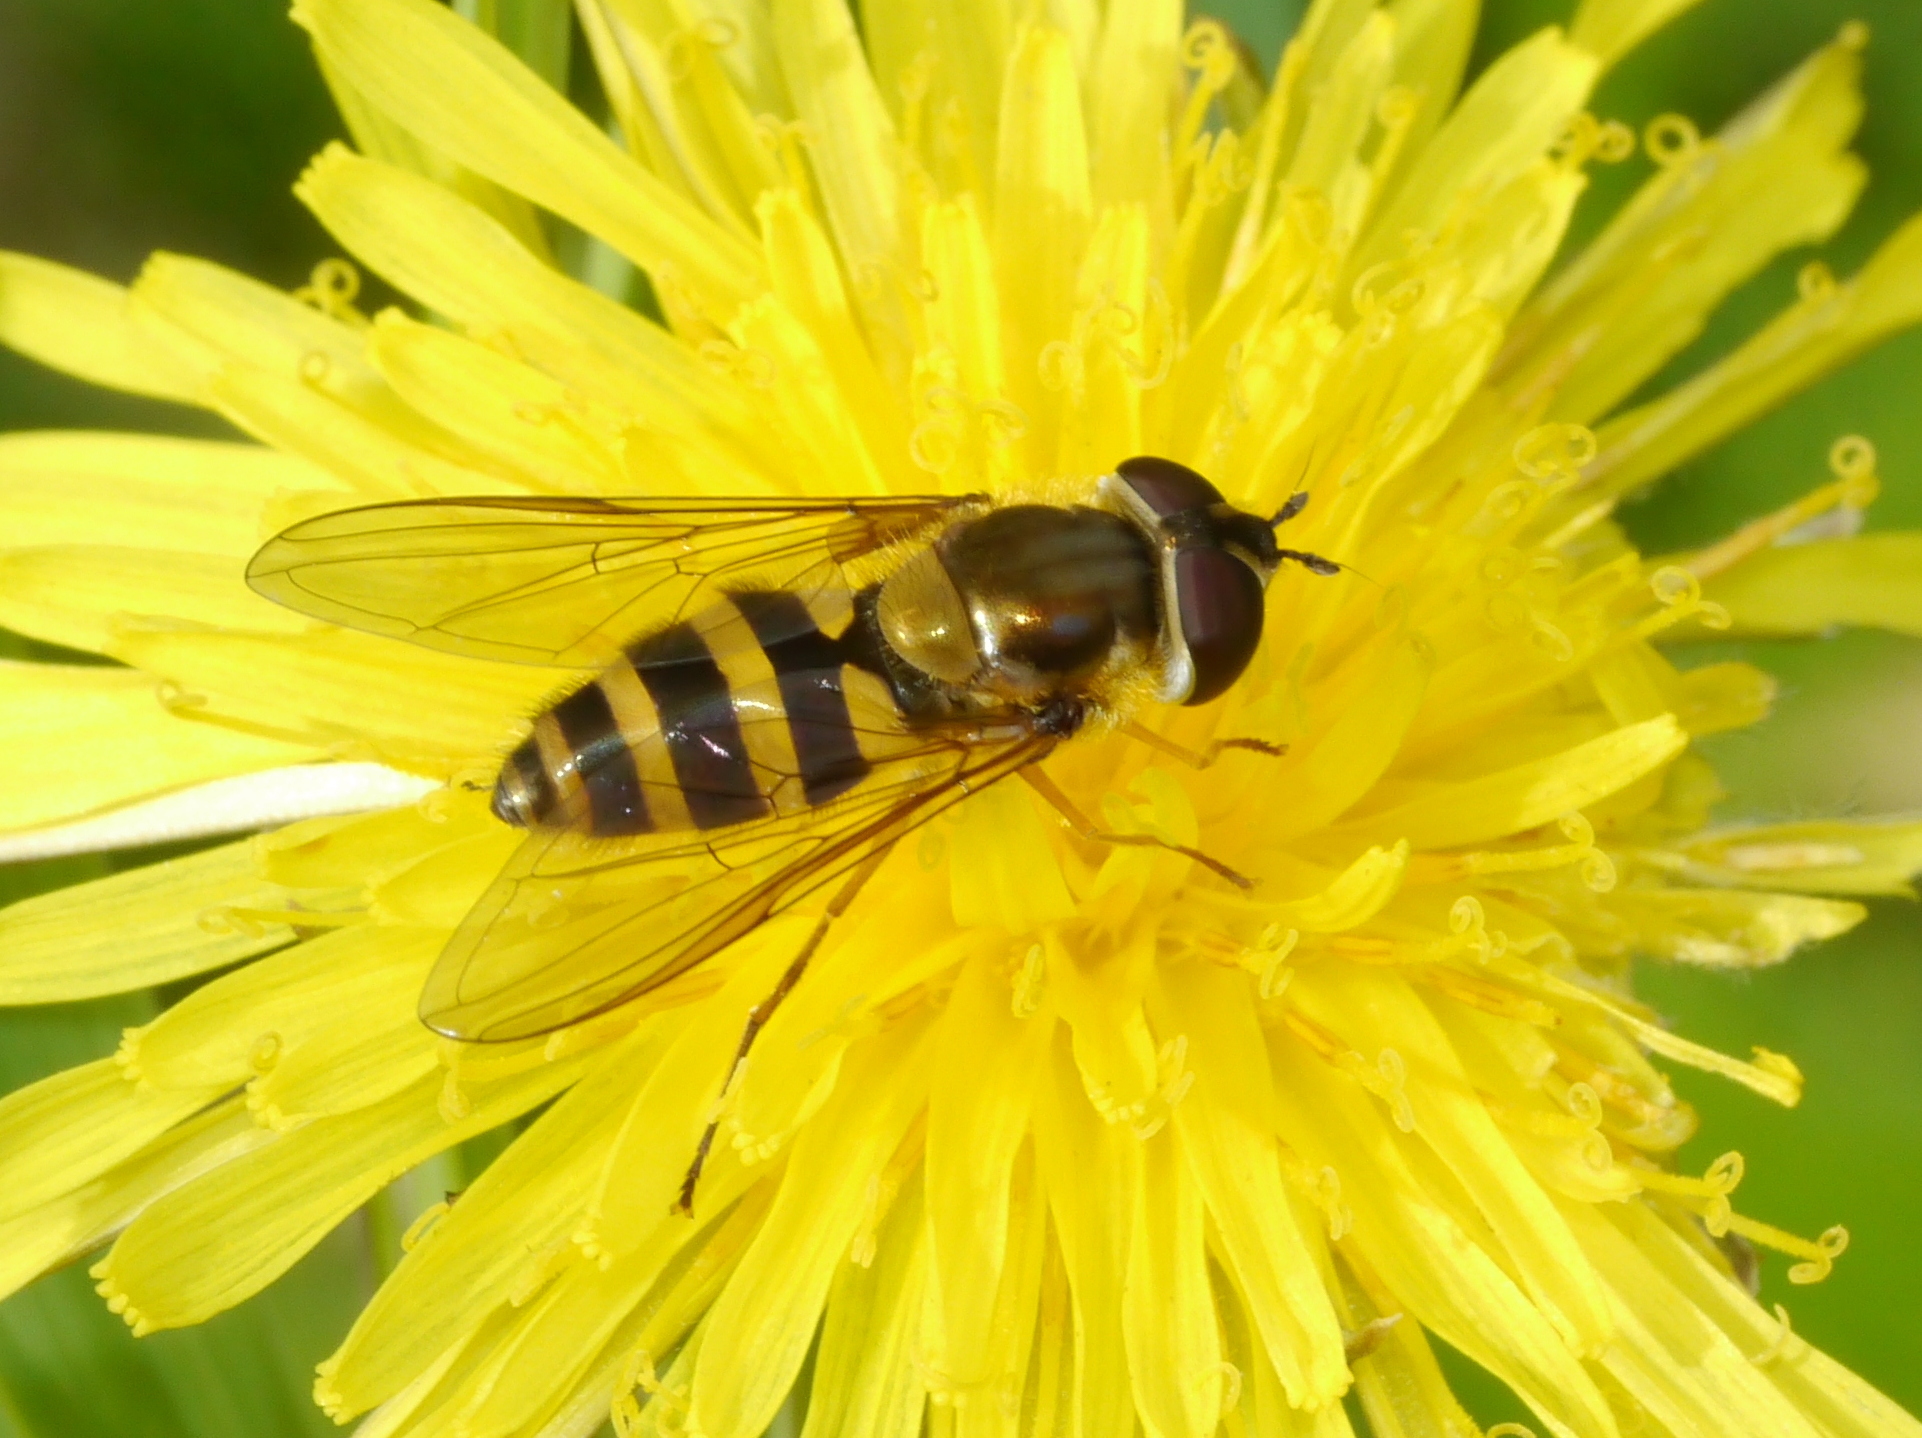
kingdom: Animalia
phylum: Arthropoda
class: Insecta
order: Diptera
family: Syrphidae
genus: Epistrophe
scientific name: Epistrophe grossulariae
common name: Black-horned smoothtail
